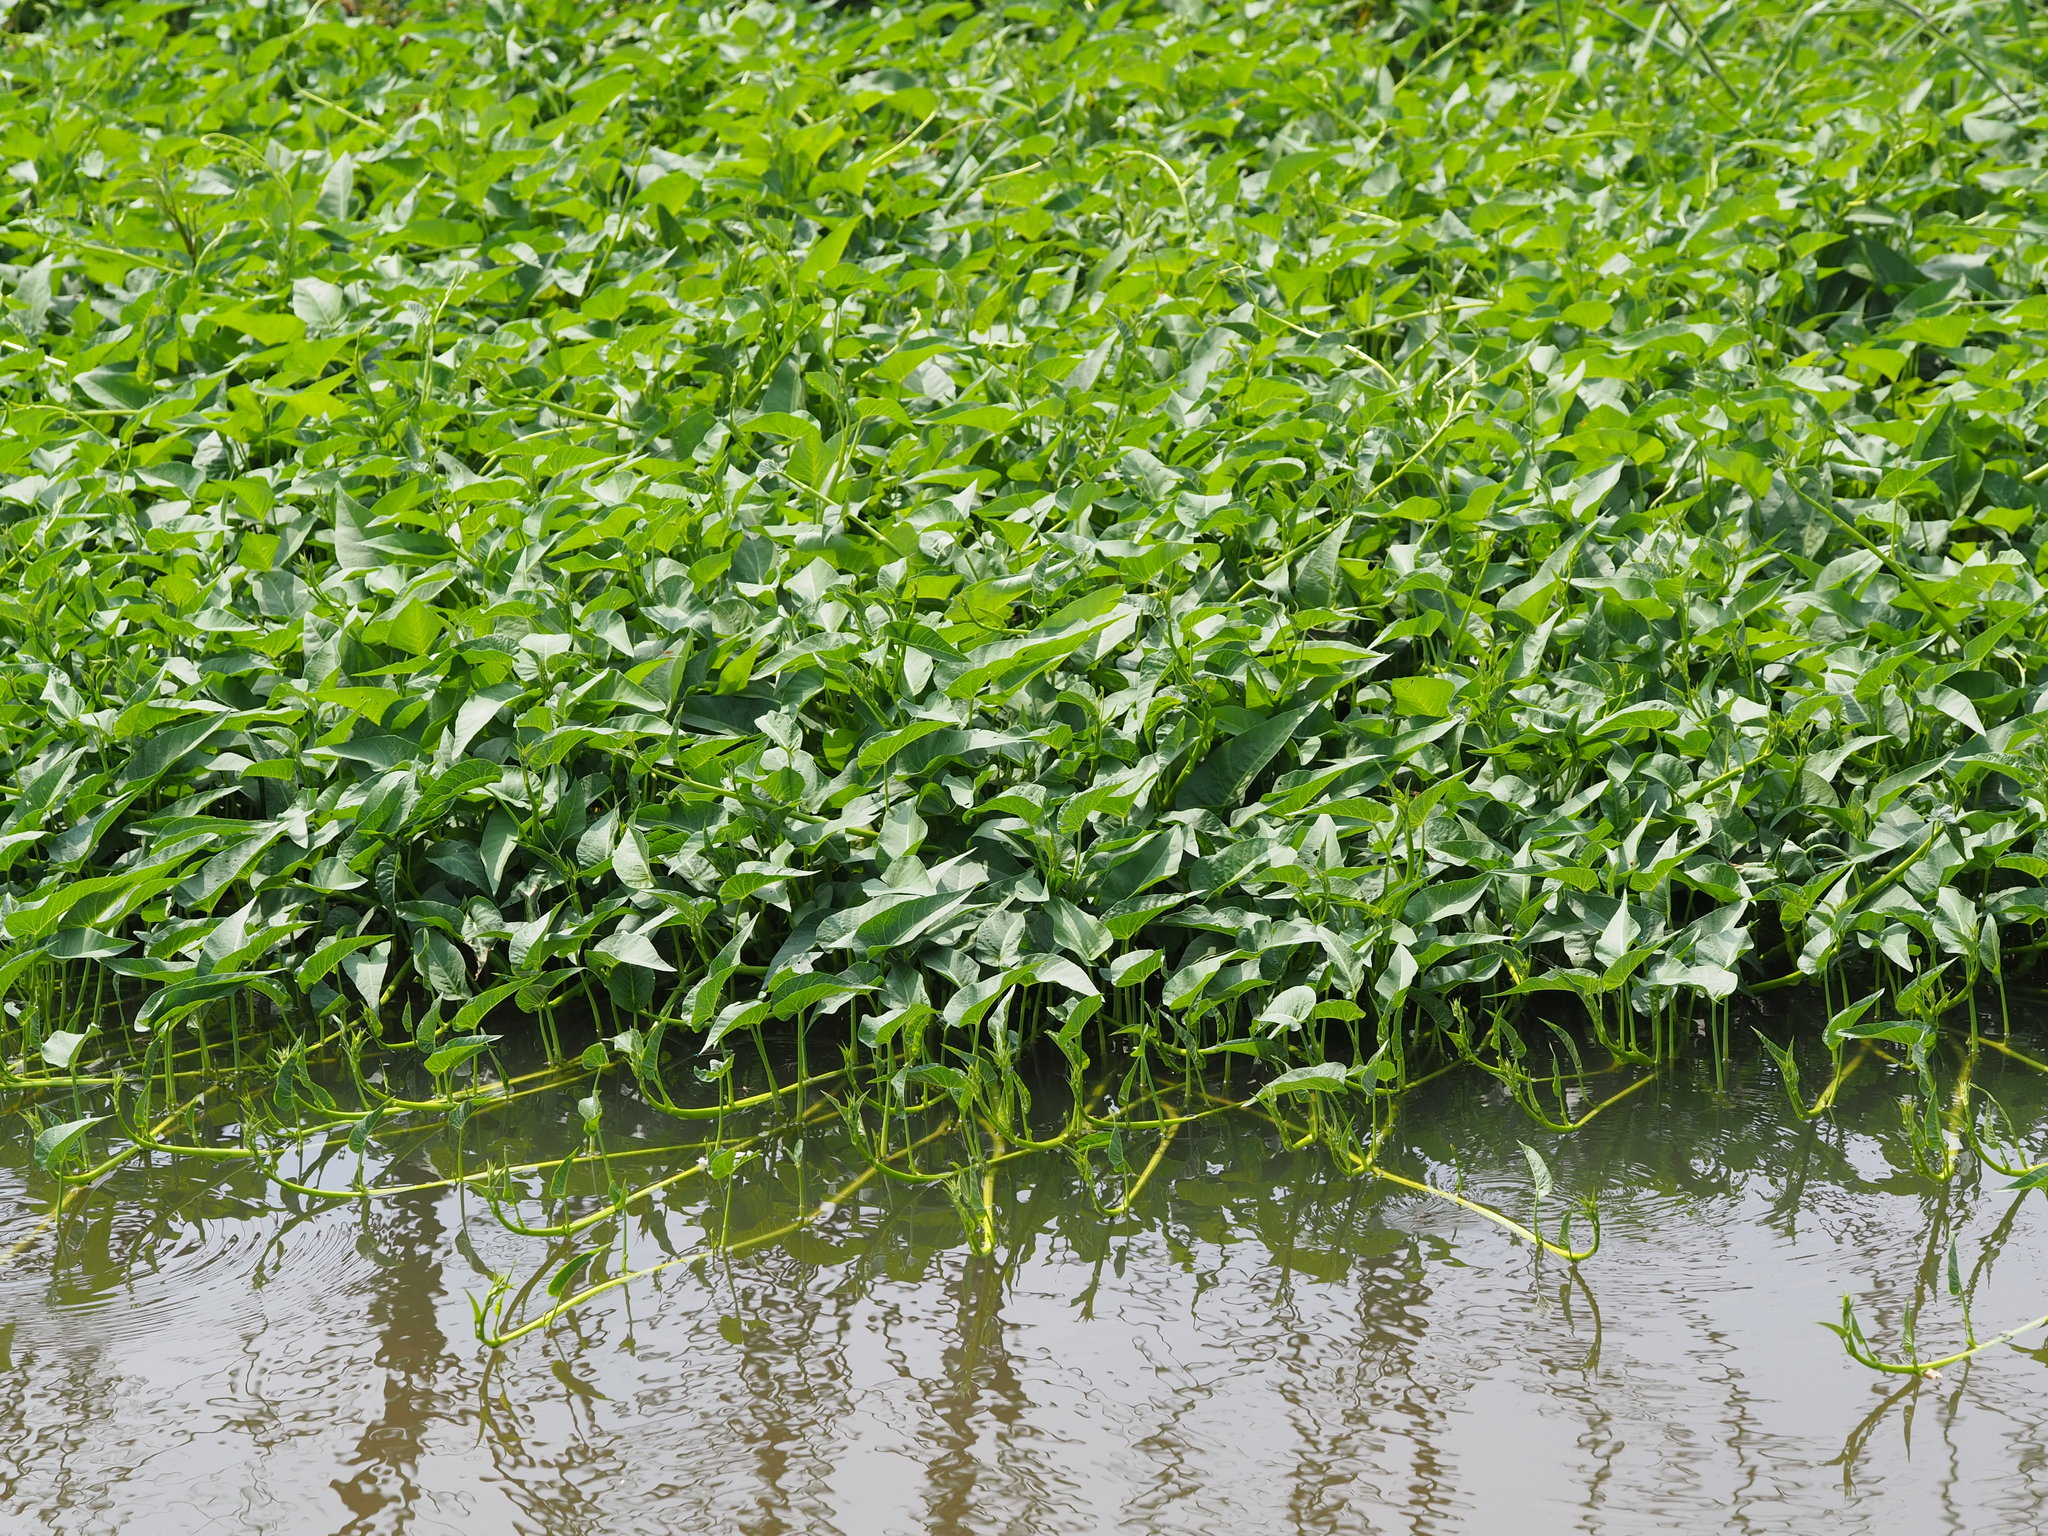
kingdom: Plantae
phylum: Tracheophyta
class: Magnoliopsida
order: Solanales
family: Convolvulaceae
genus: Ipomoea
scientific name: Ipomoea aquatica
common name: Swamp morning-glory
